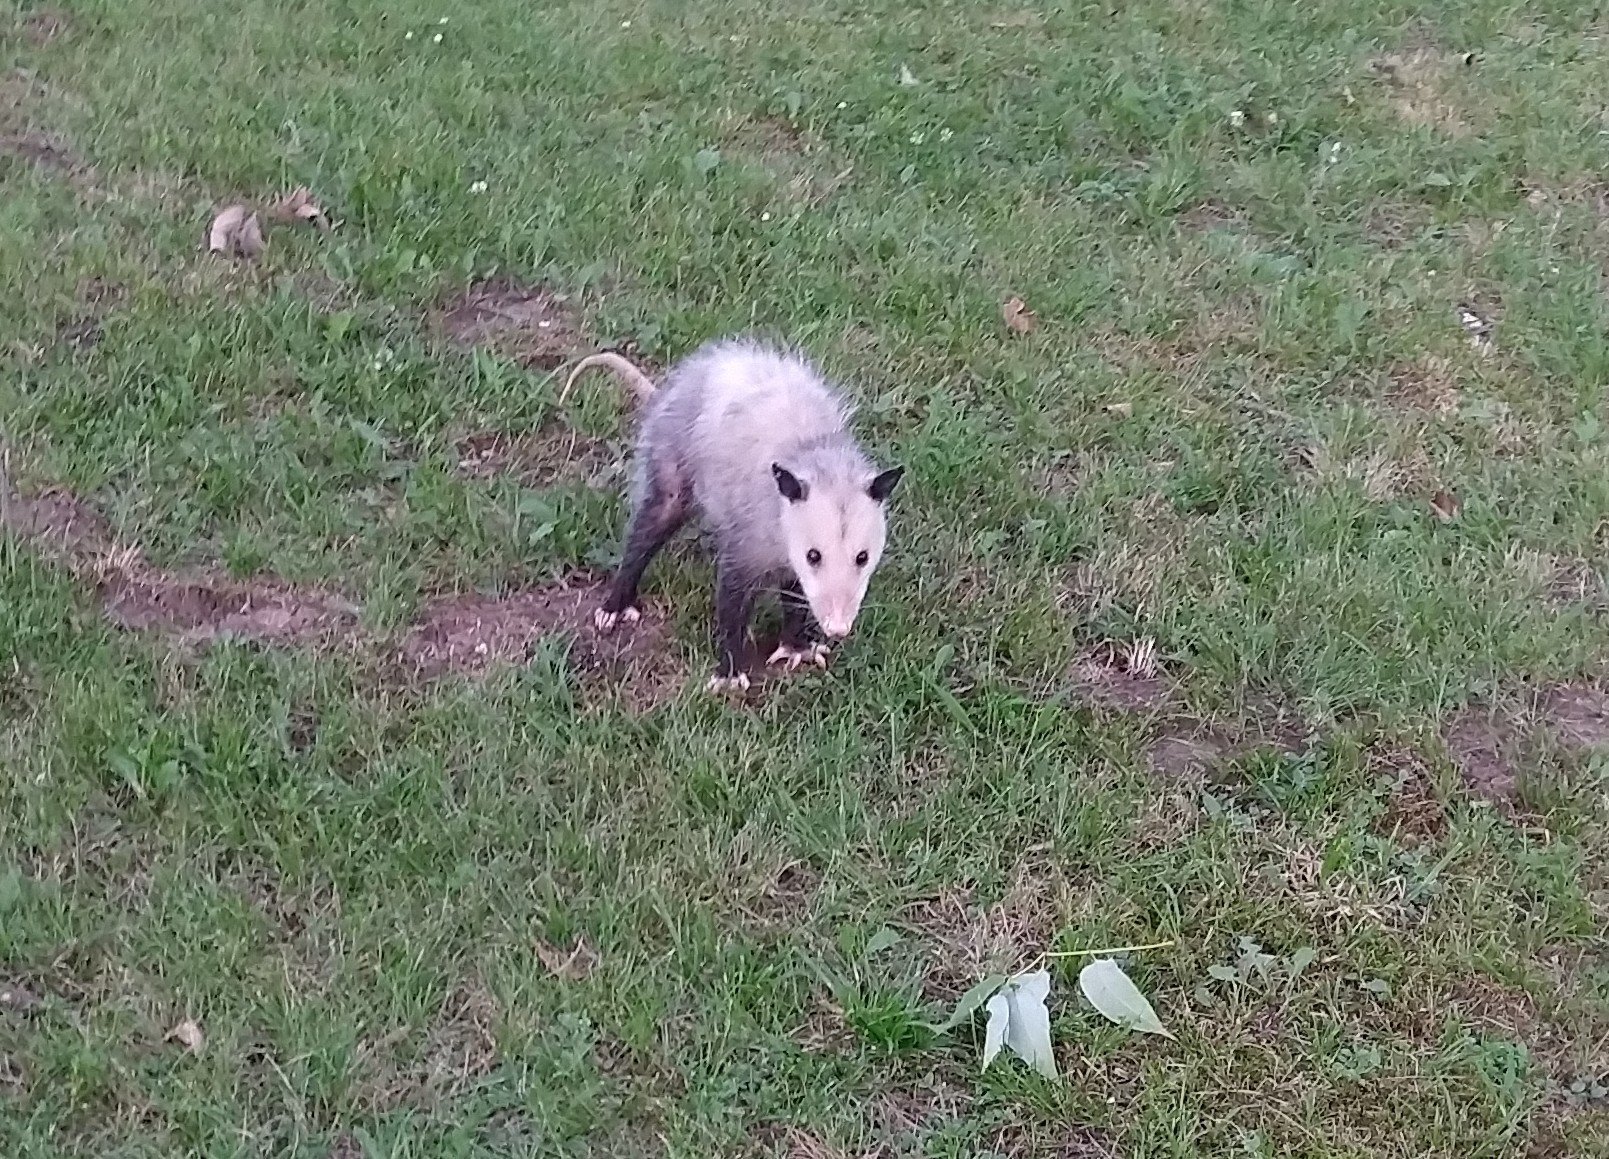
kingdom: Animalia
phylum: Chordata
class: Mammalia
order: Didelphimorphia
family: Didelphidae
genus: Didelphis
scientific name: Didelphis virginiana
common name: Virginia opossum
